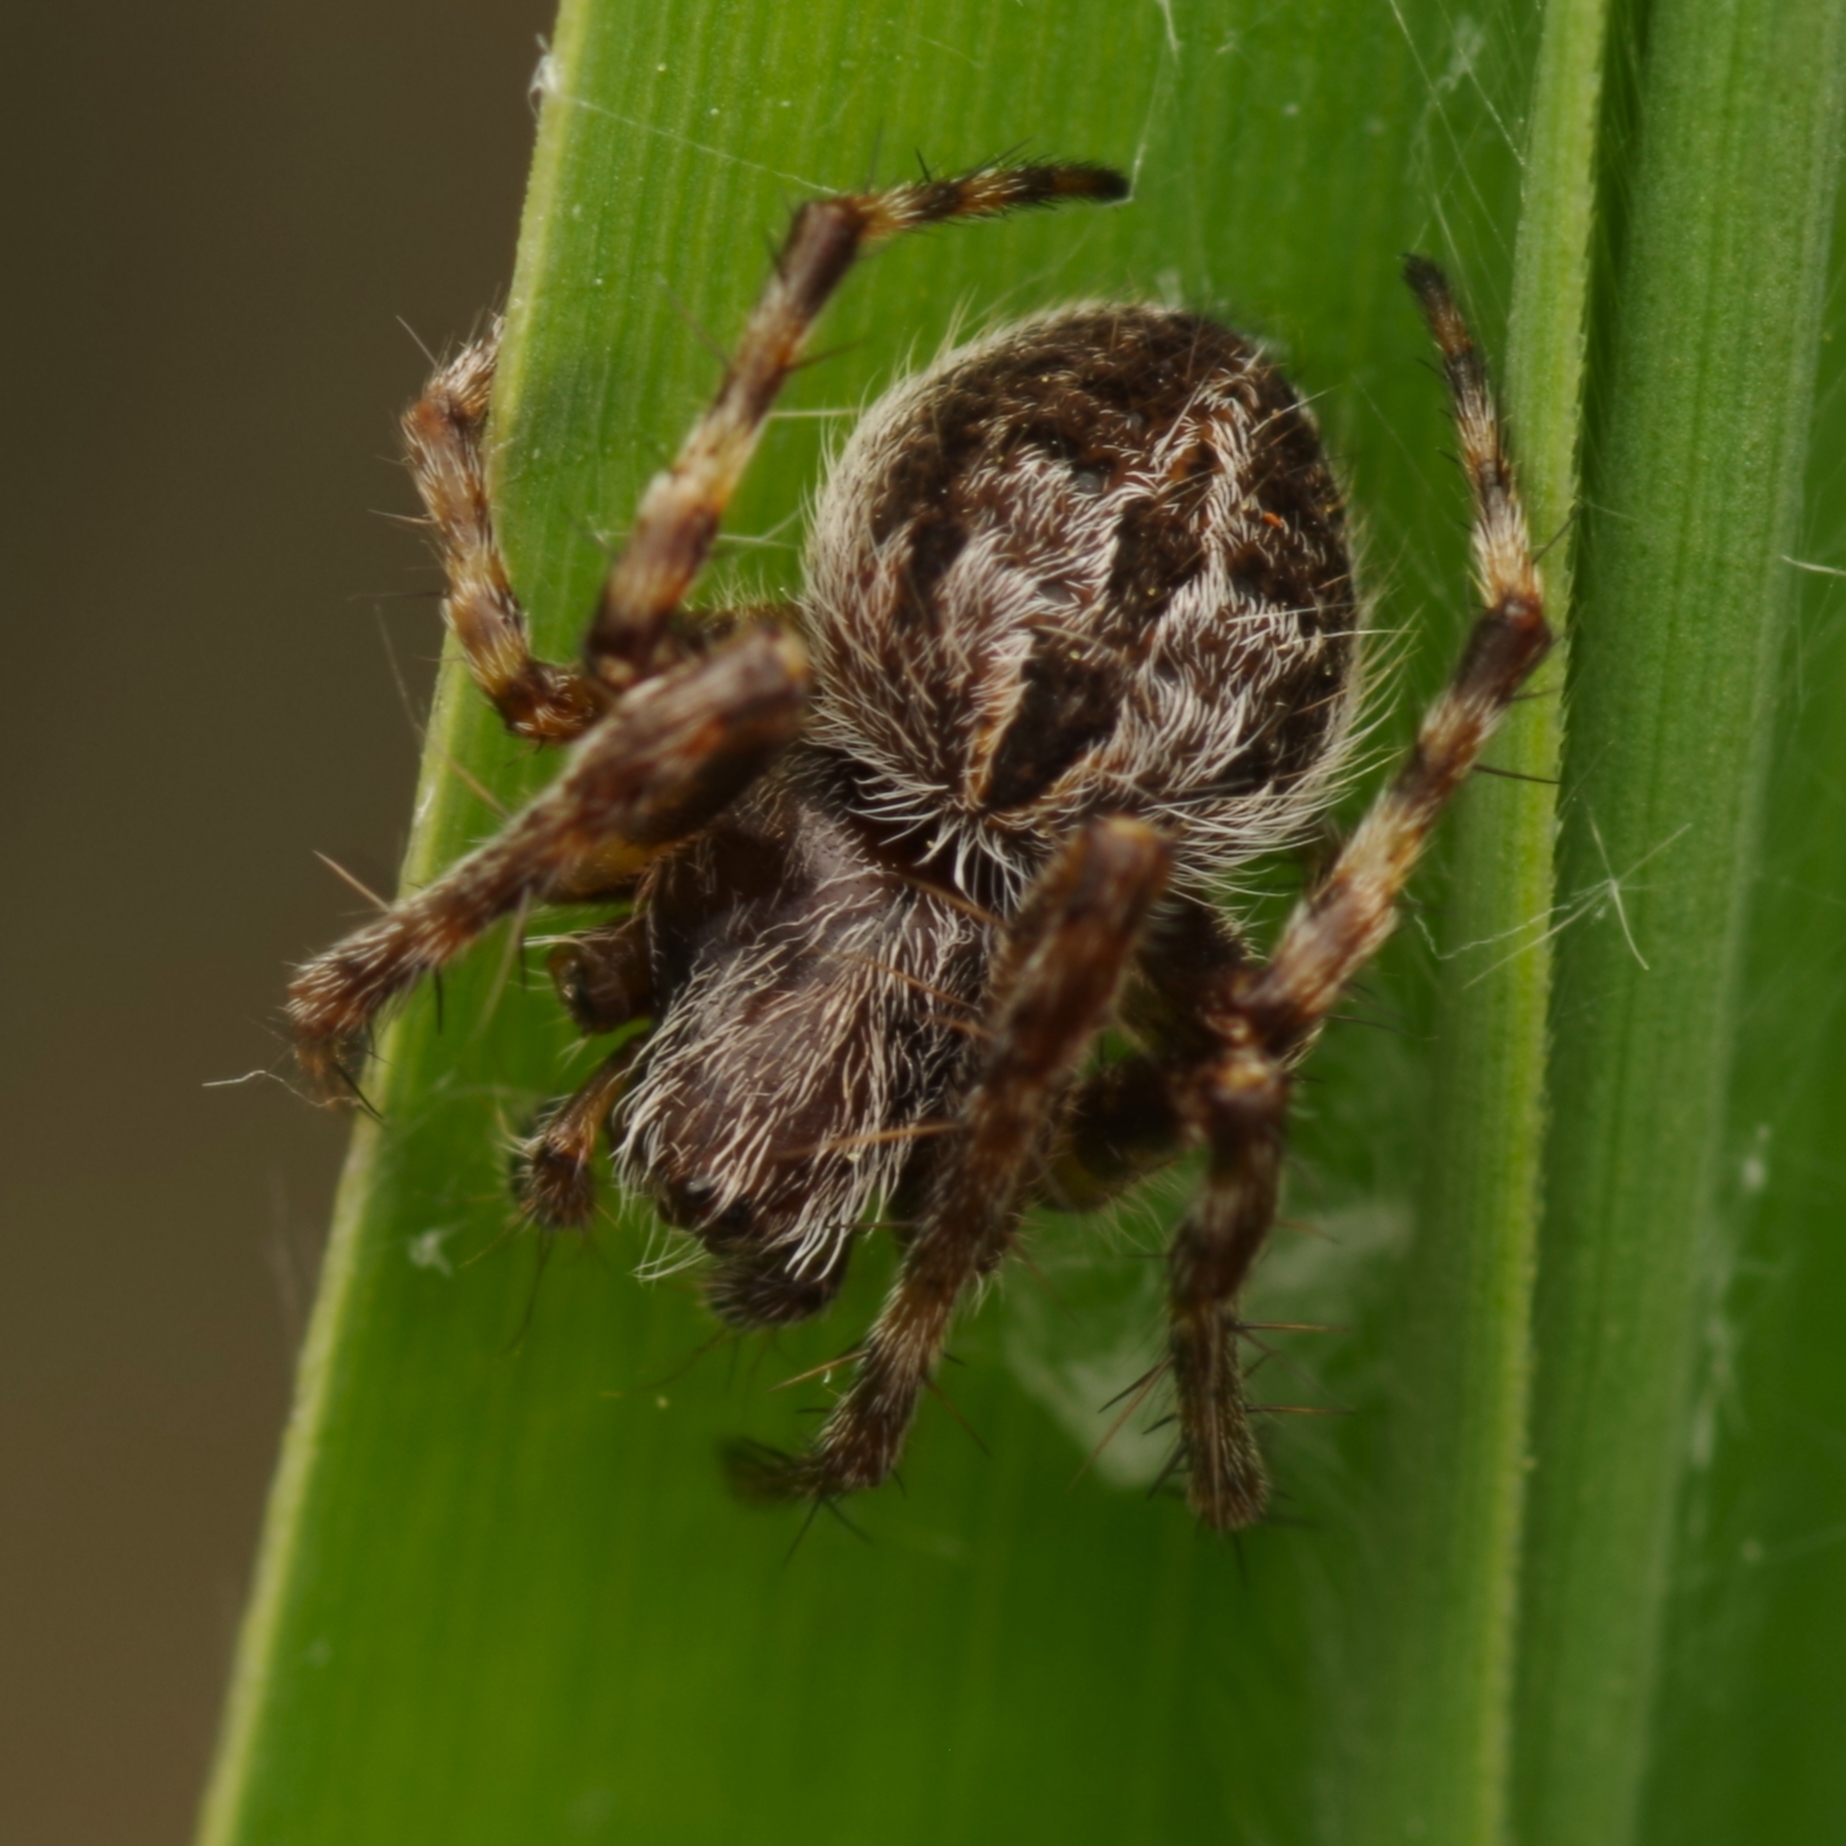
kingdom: Animalia
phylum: Arthropoda
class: Arachnida
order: Araneae
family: Araneidae
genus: Agalenatea
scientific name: Agalenatea redii
